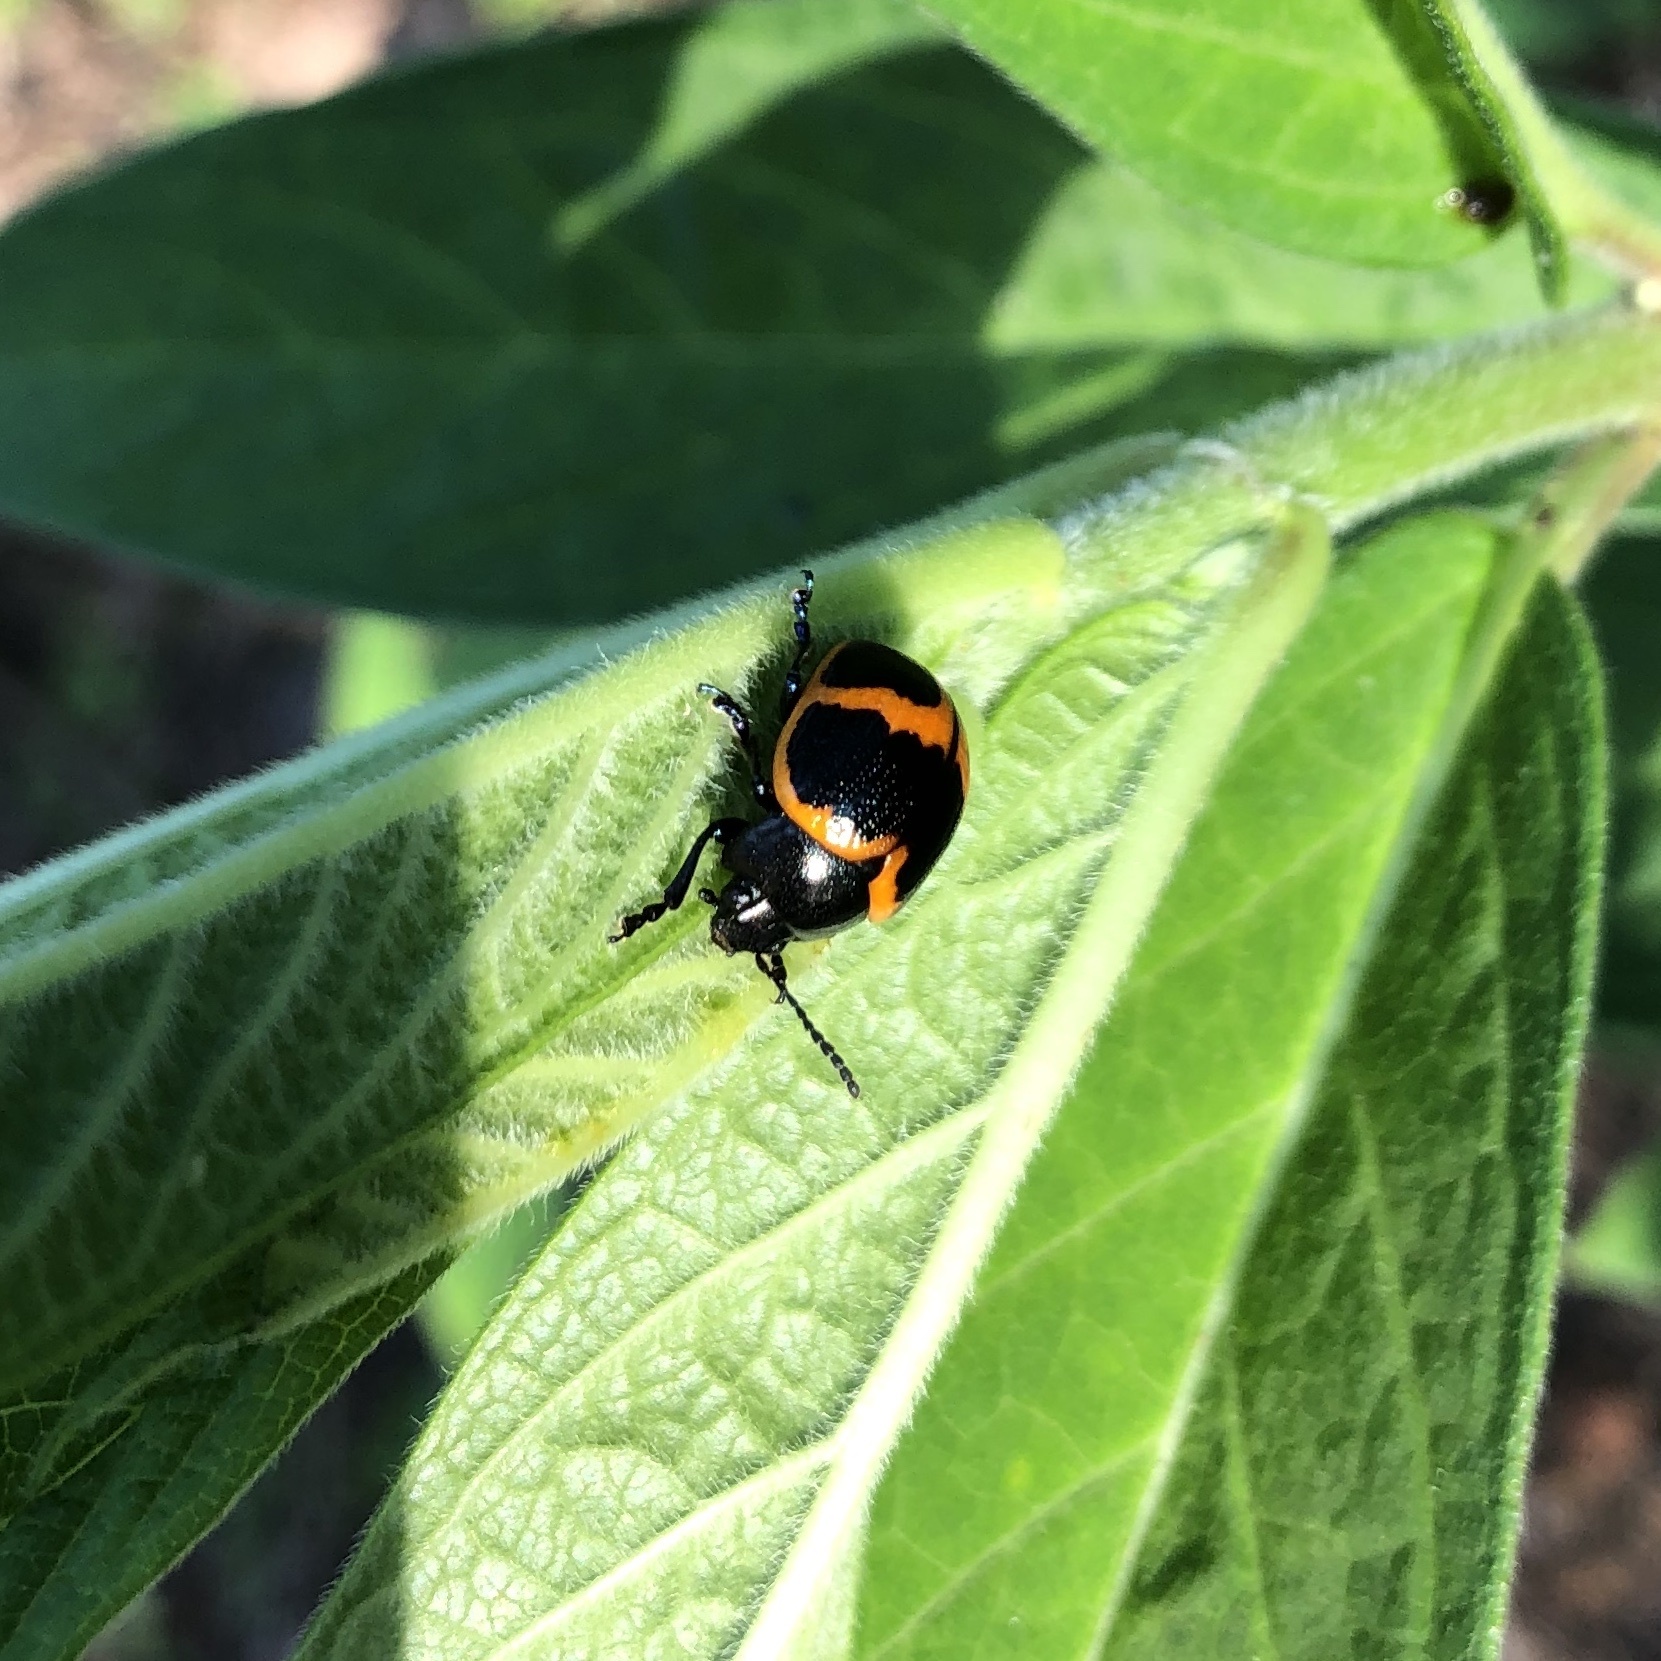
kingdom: Animalia
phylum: Arthropoda
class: Insecta
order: Coleoptera
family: Chrysomelidae
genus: Labidomera
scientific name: Labidomera clivicollis
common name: Swamp milkweed leaf beetle
